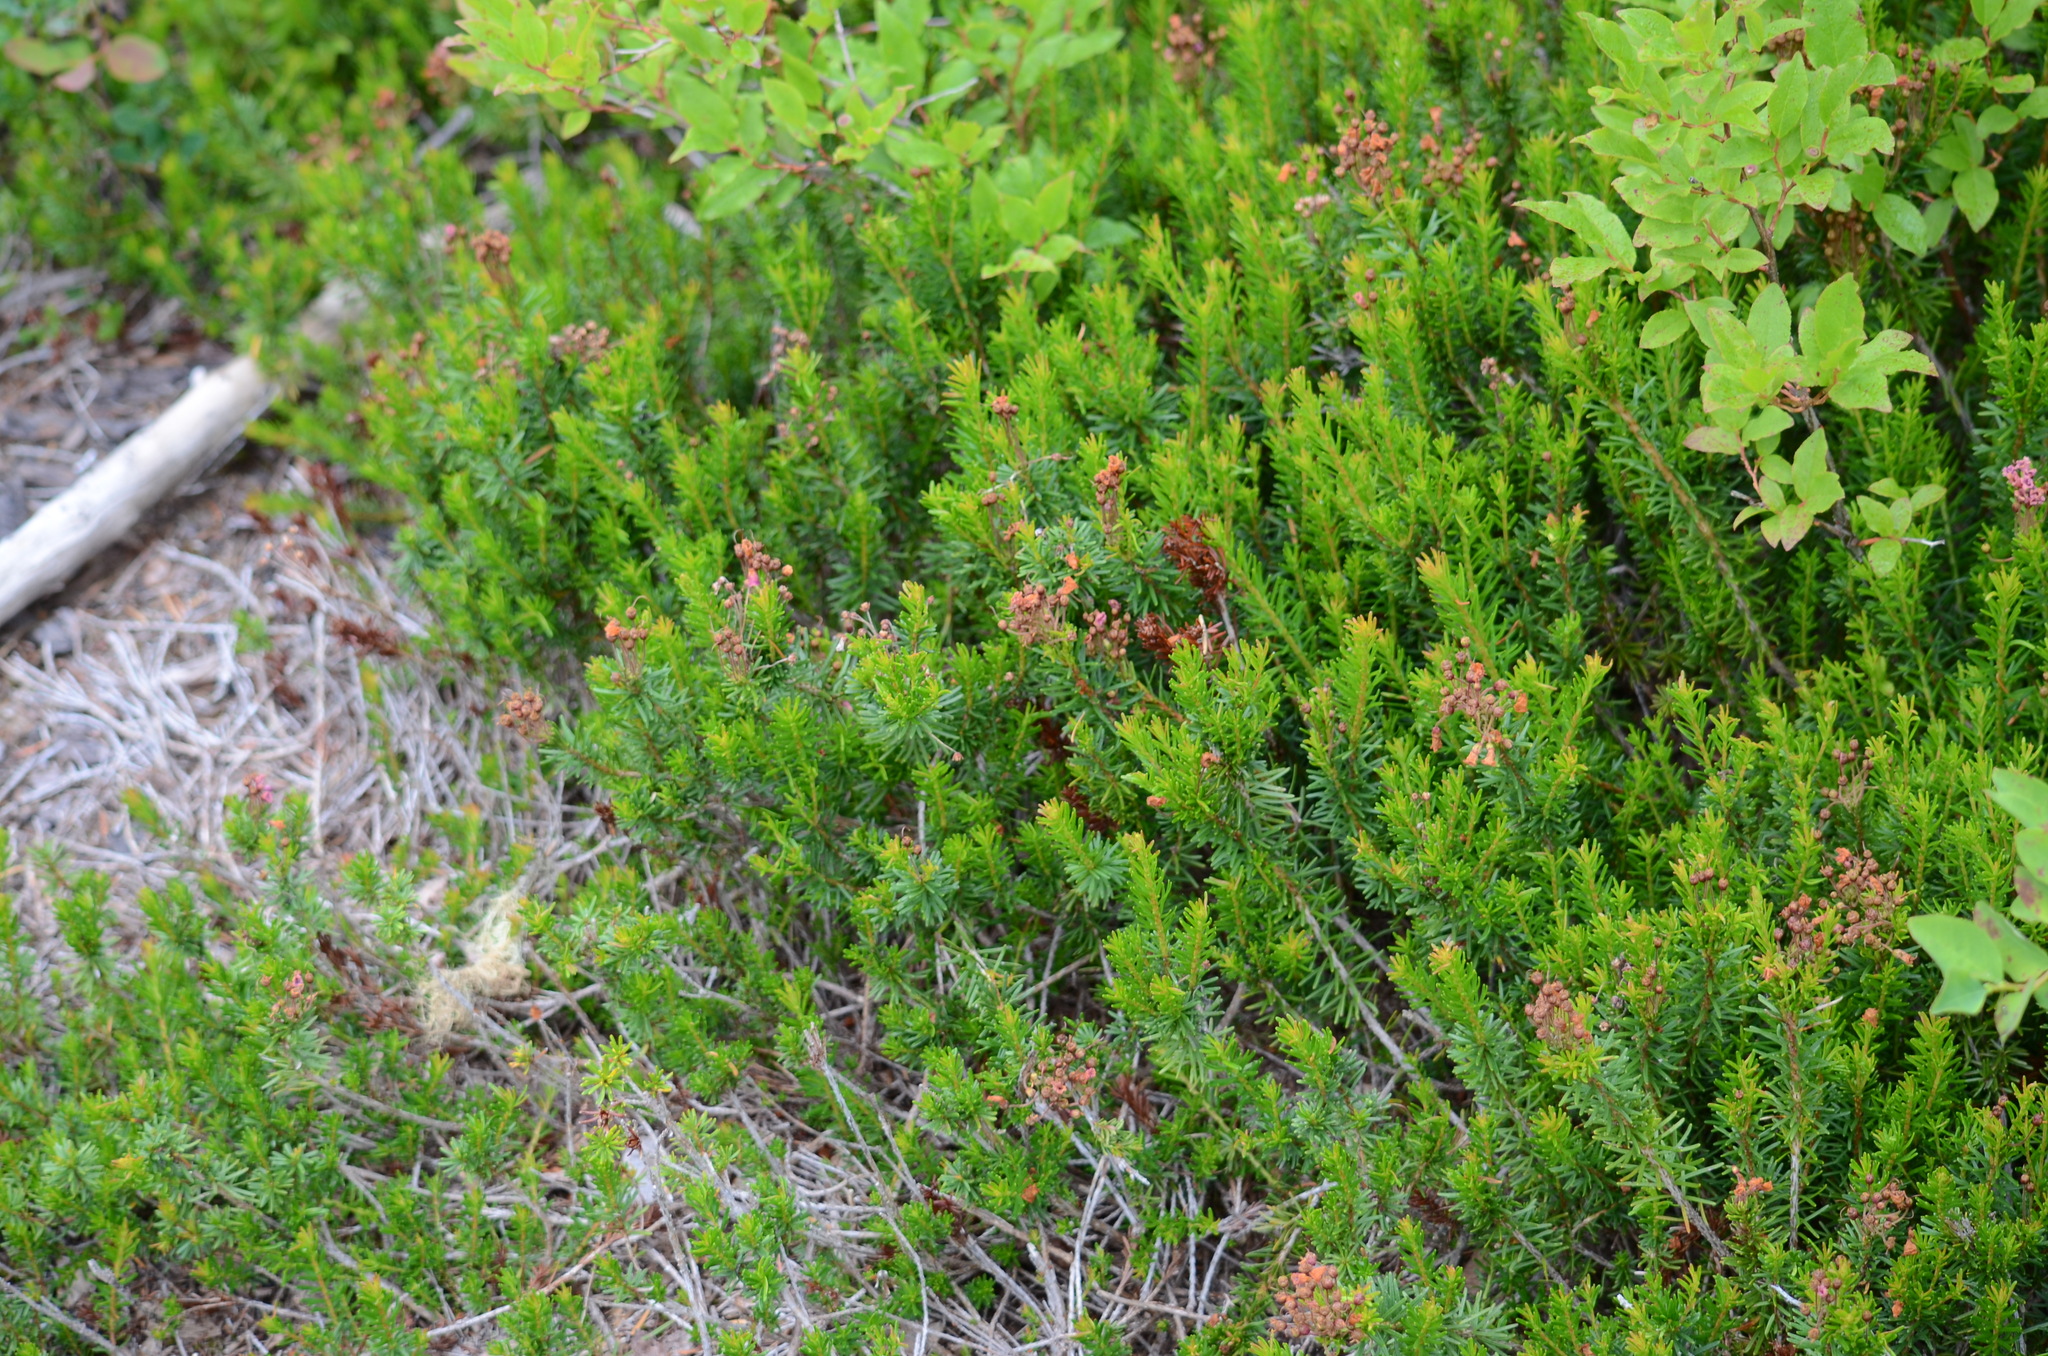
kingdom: Plantae
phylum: Tracheophyta
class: Magnoliopsida
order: Ericales
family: Ericaceae
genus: Phyllodoce
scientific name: Phyllodoce empetriformis
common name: Pink mountain heather
